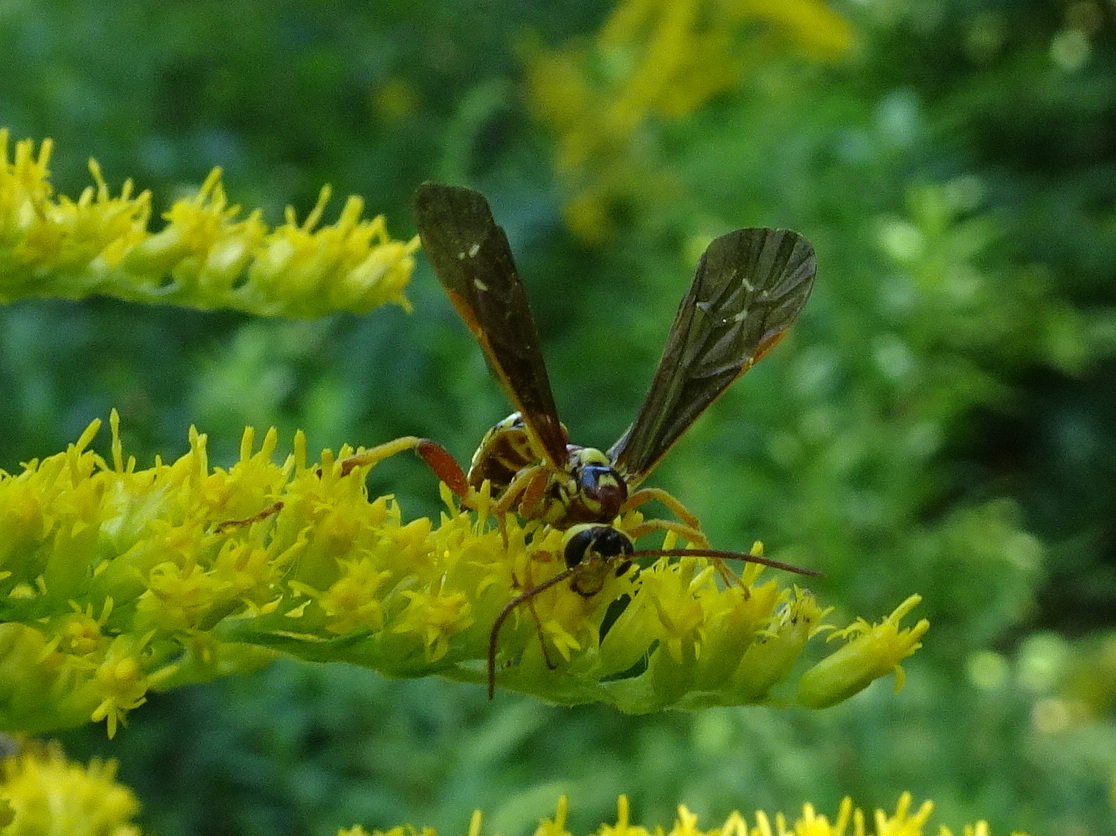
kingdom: Animalia
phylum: Arthropoda
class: Insecta
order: Hymenoptera
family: Ichneumonidae
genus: Ceratogastra
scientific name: Ceratogastra ornata
